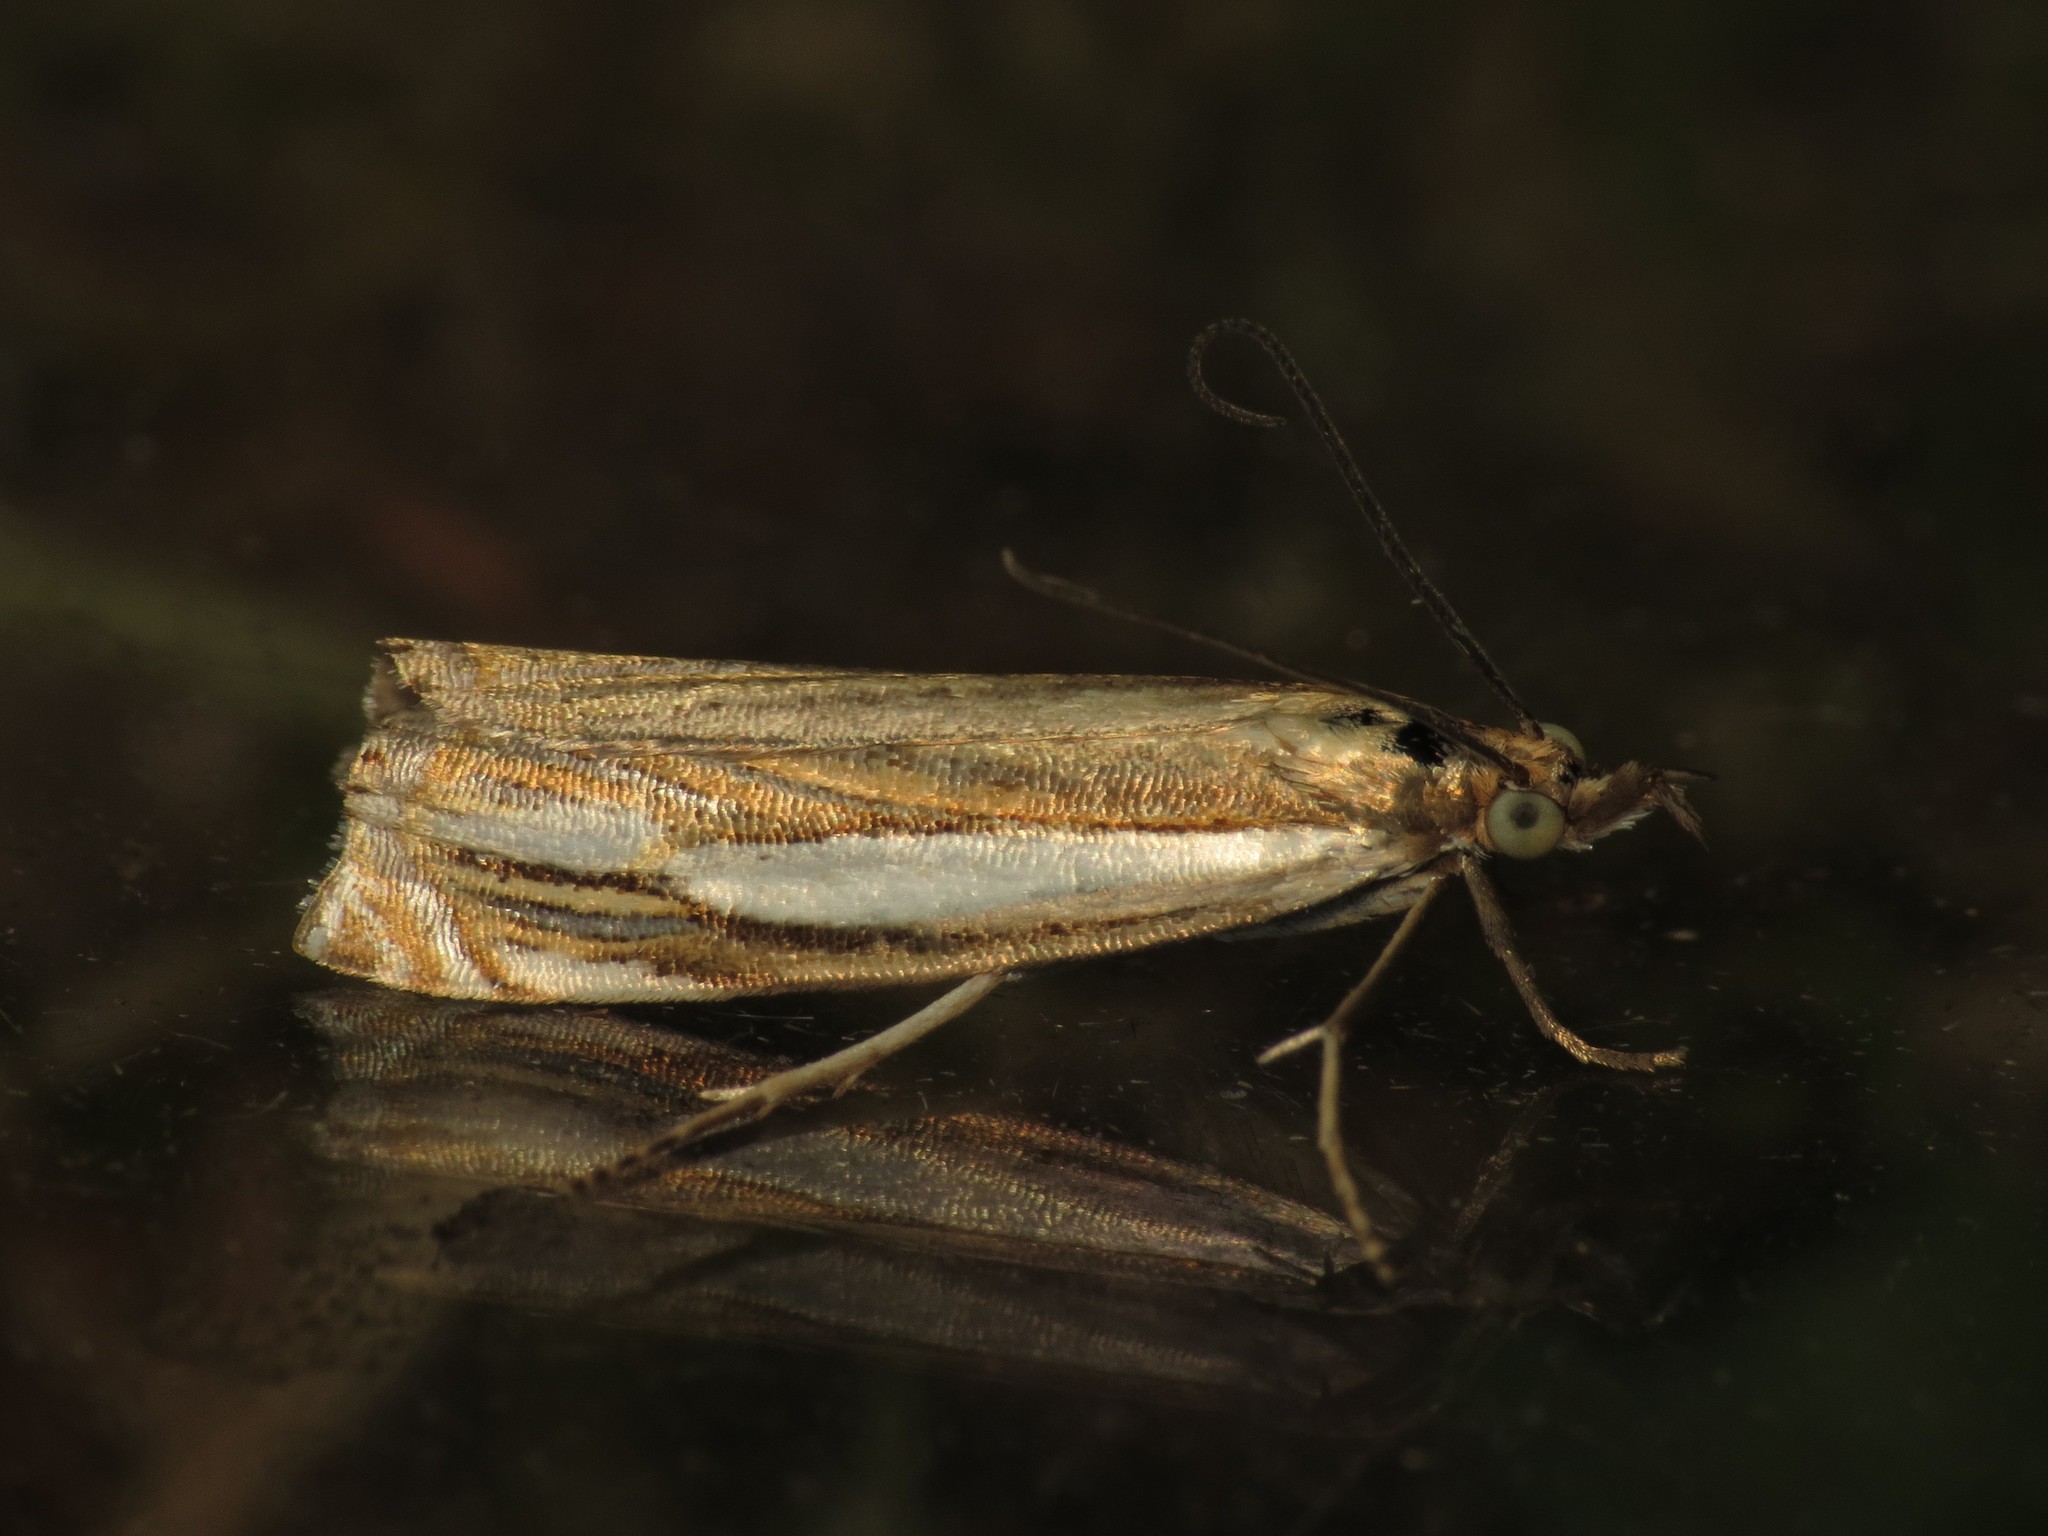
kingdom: Animalia
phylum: Arthropoda
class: Insecta
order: Lepidoptera
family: Crambidae
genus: Crambus
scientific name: Crambus silvella
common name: Wood grass-veneer
